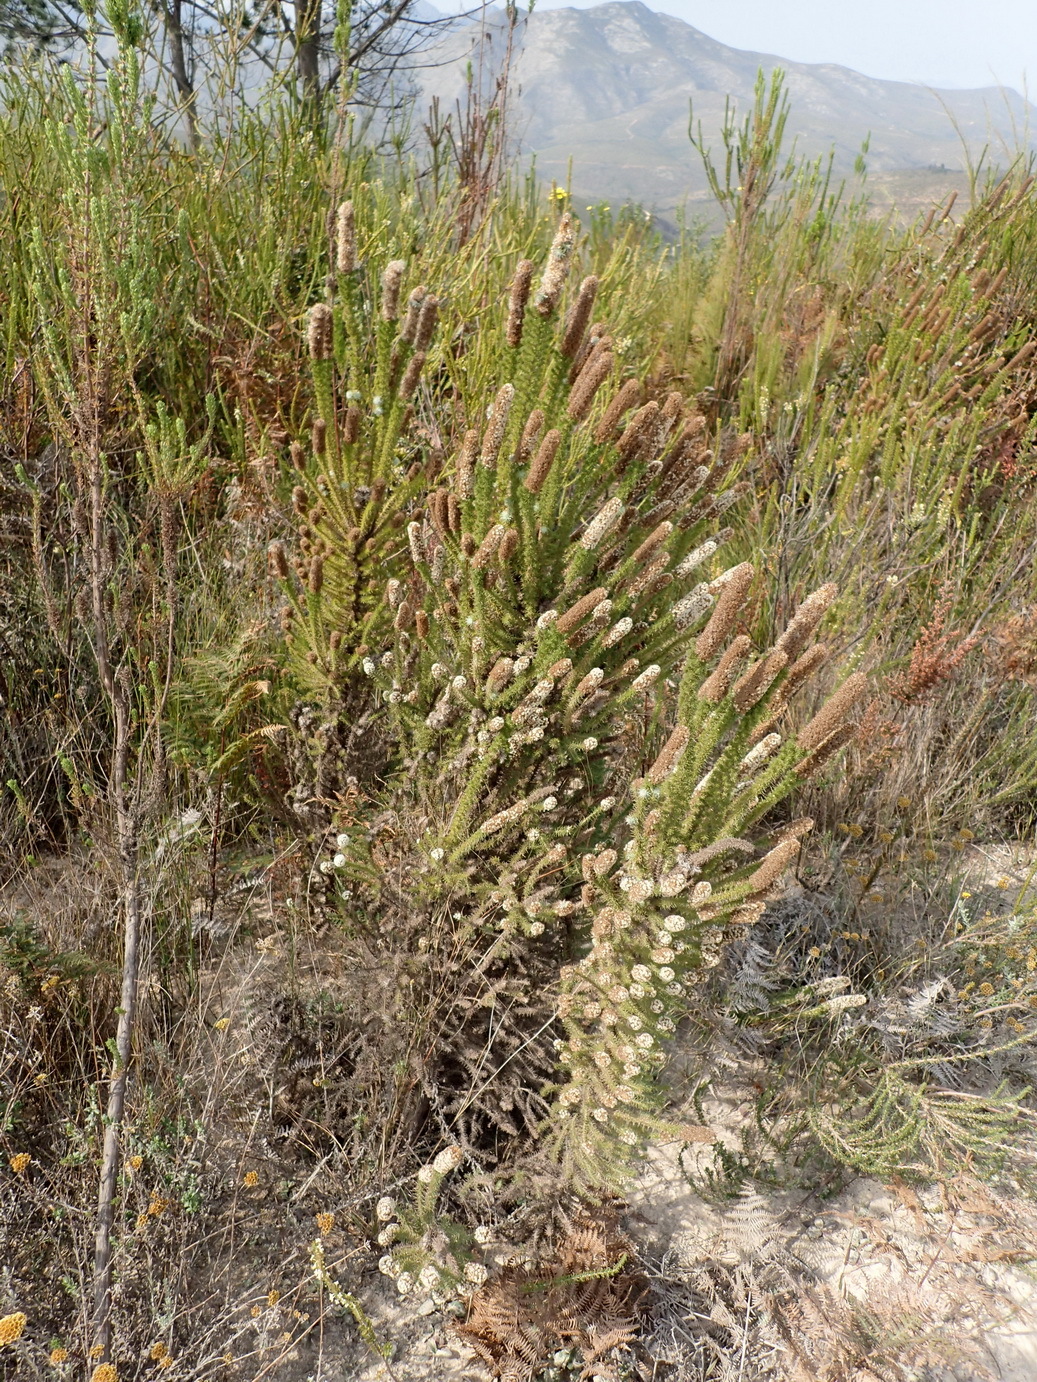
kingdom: Plantae
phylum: Tracheophyta
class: Magnoliopsida
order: Asterales
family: Asteraceae
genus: Stoebe
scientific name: Stoebe alopecuroides
